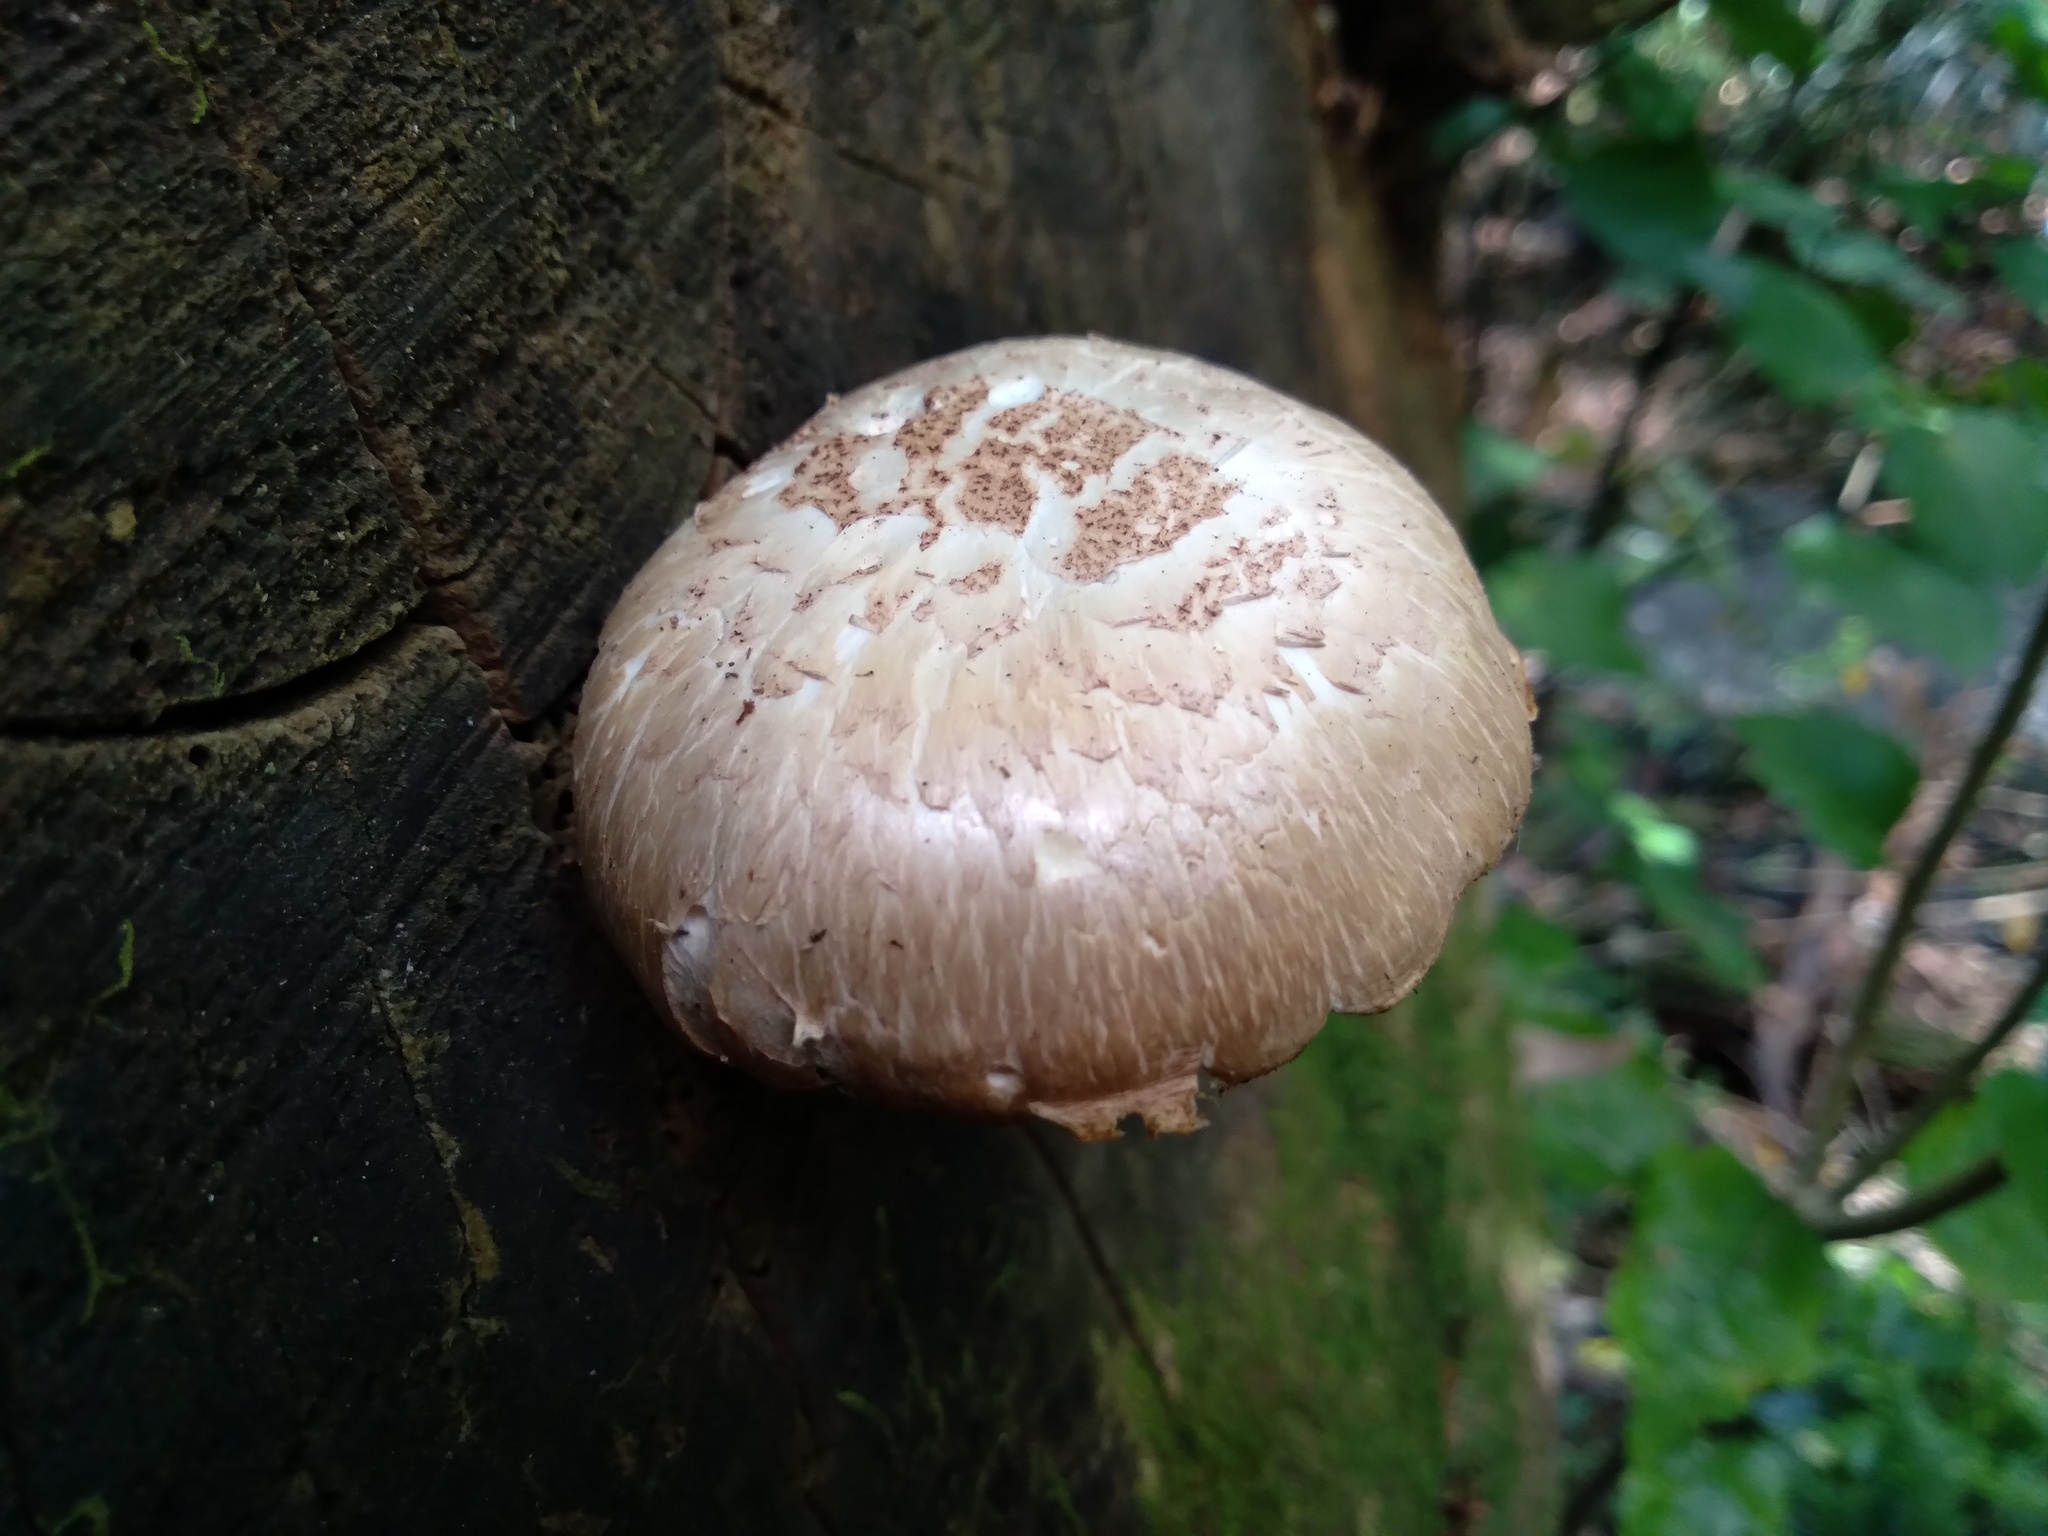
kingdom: Fungi
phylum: Basidiomycota
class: Agaricomycetes
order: Gloeophyllales
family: Gloeophyllaceae
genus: Neolentinus
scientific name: Neolentinus lepideus
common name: Scaly sawgill
